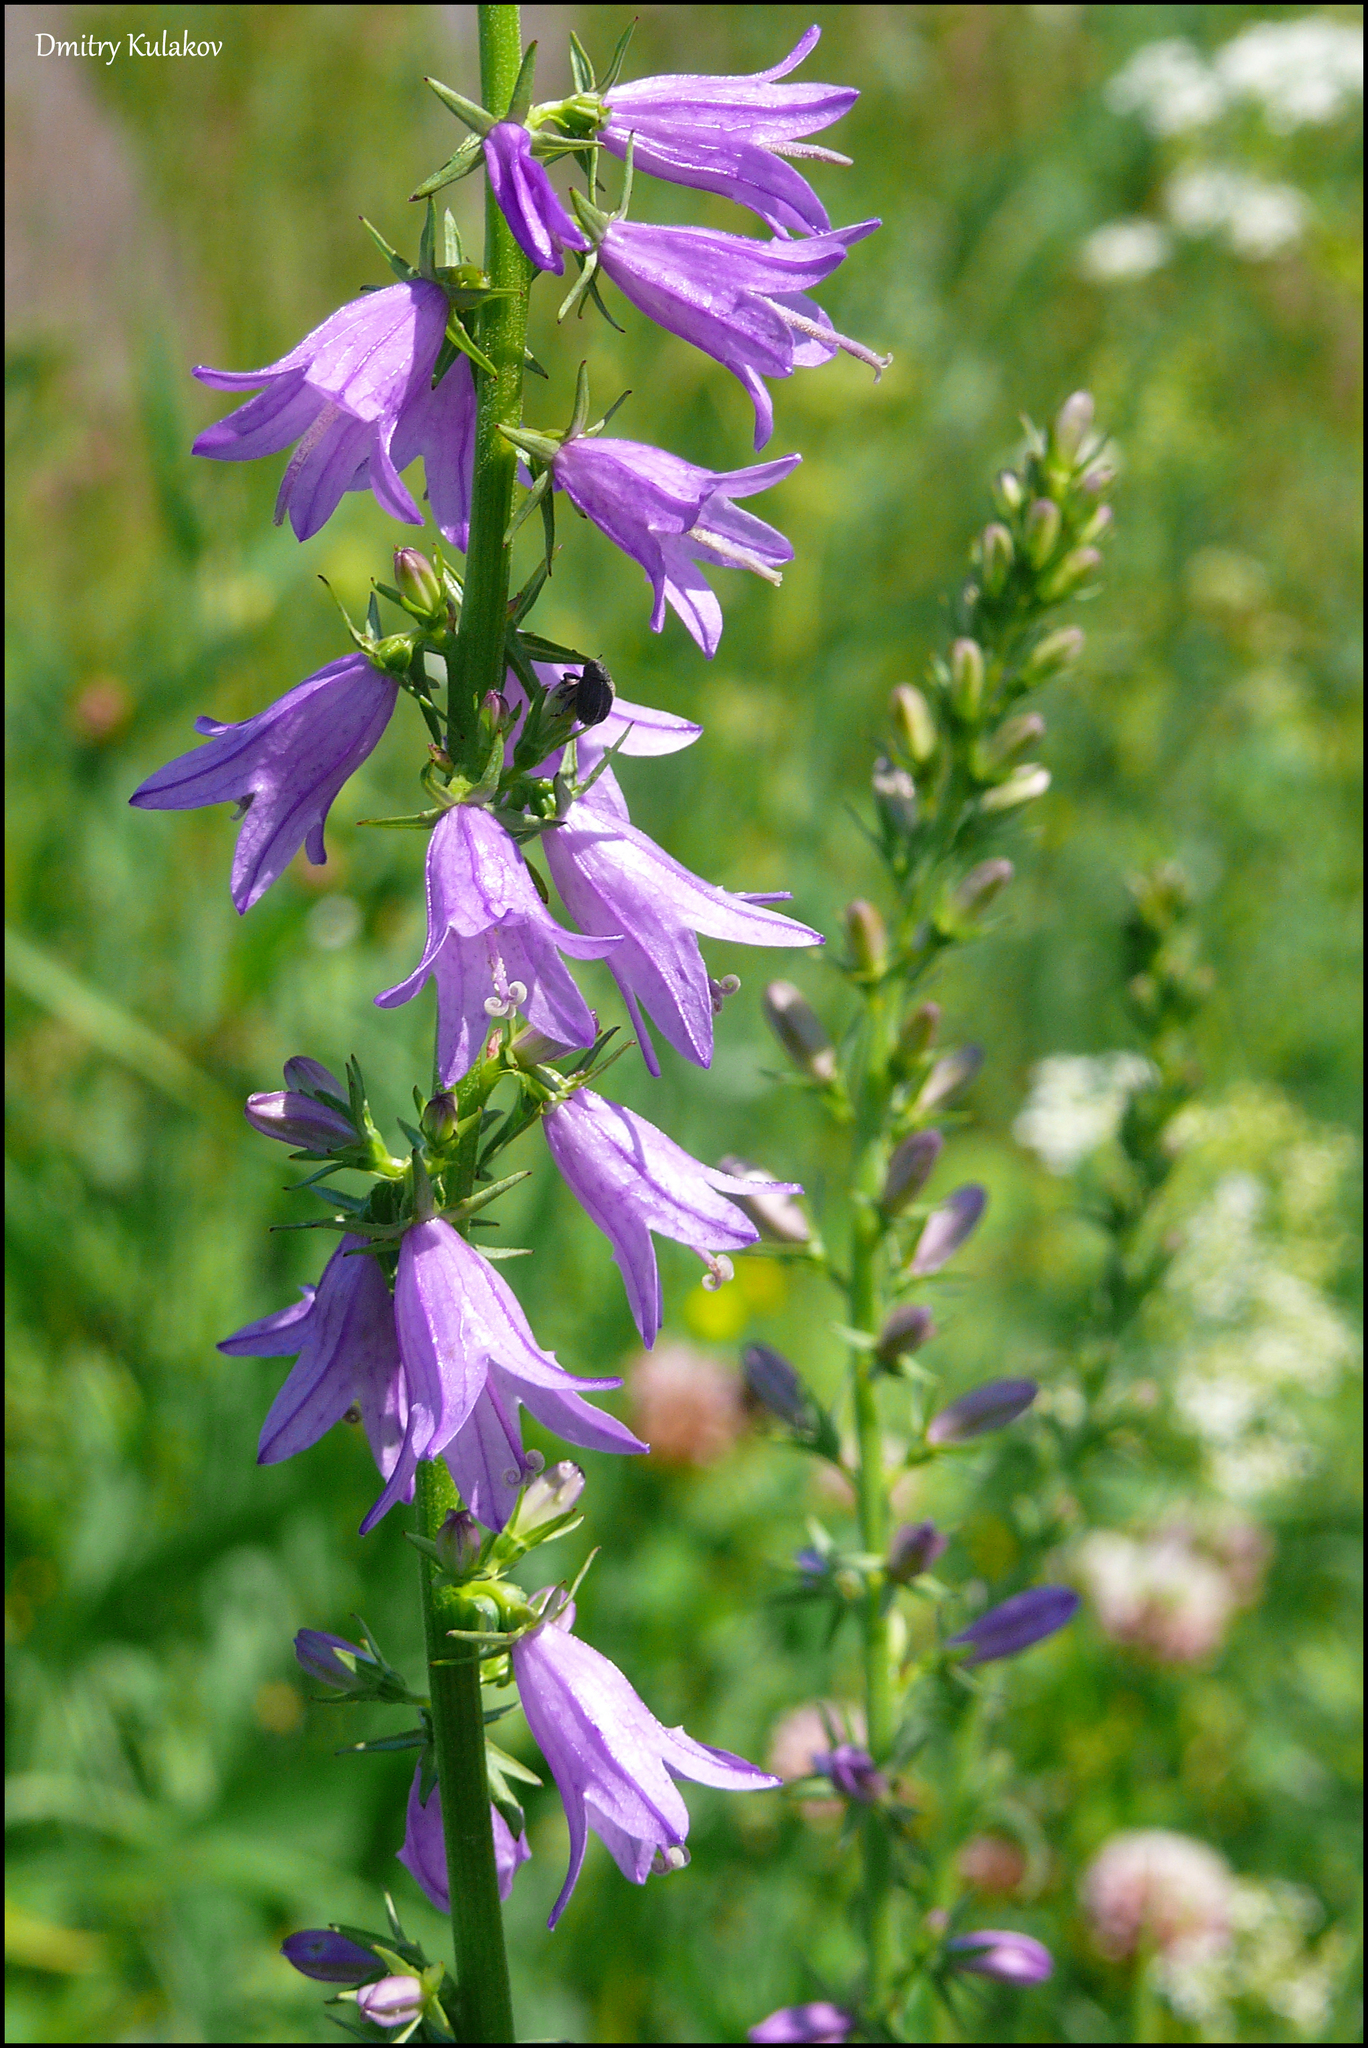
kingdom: Plantae
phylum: Tracheophyta
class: Magnoliopsida
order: Asterales
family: Campanulaceae
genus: Campanula
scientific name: Campanula rapunculoides
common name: Creeping bellflower
